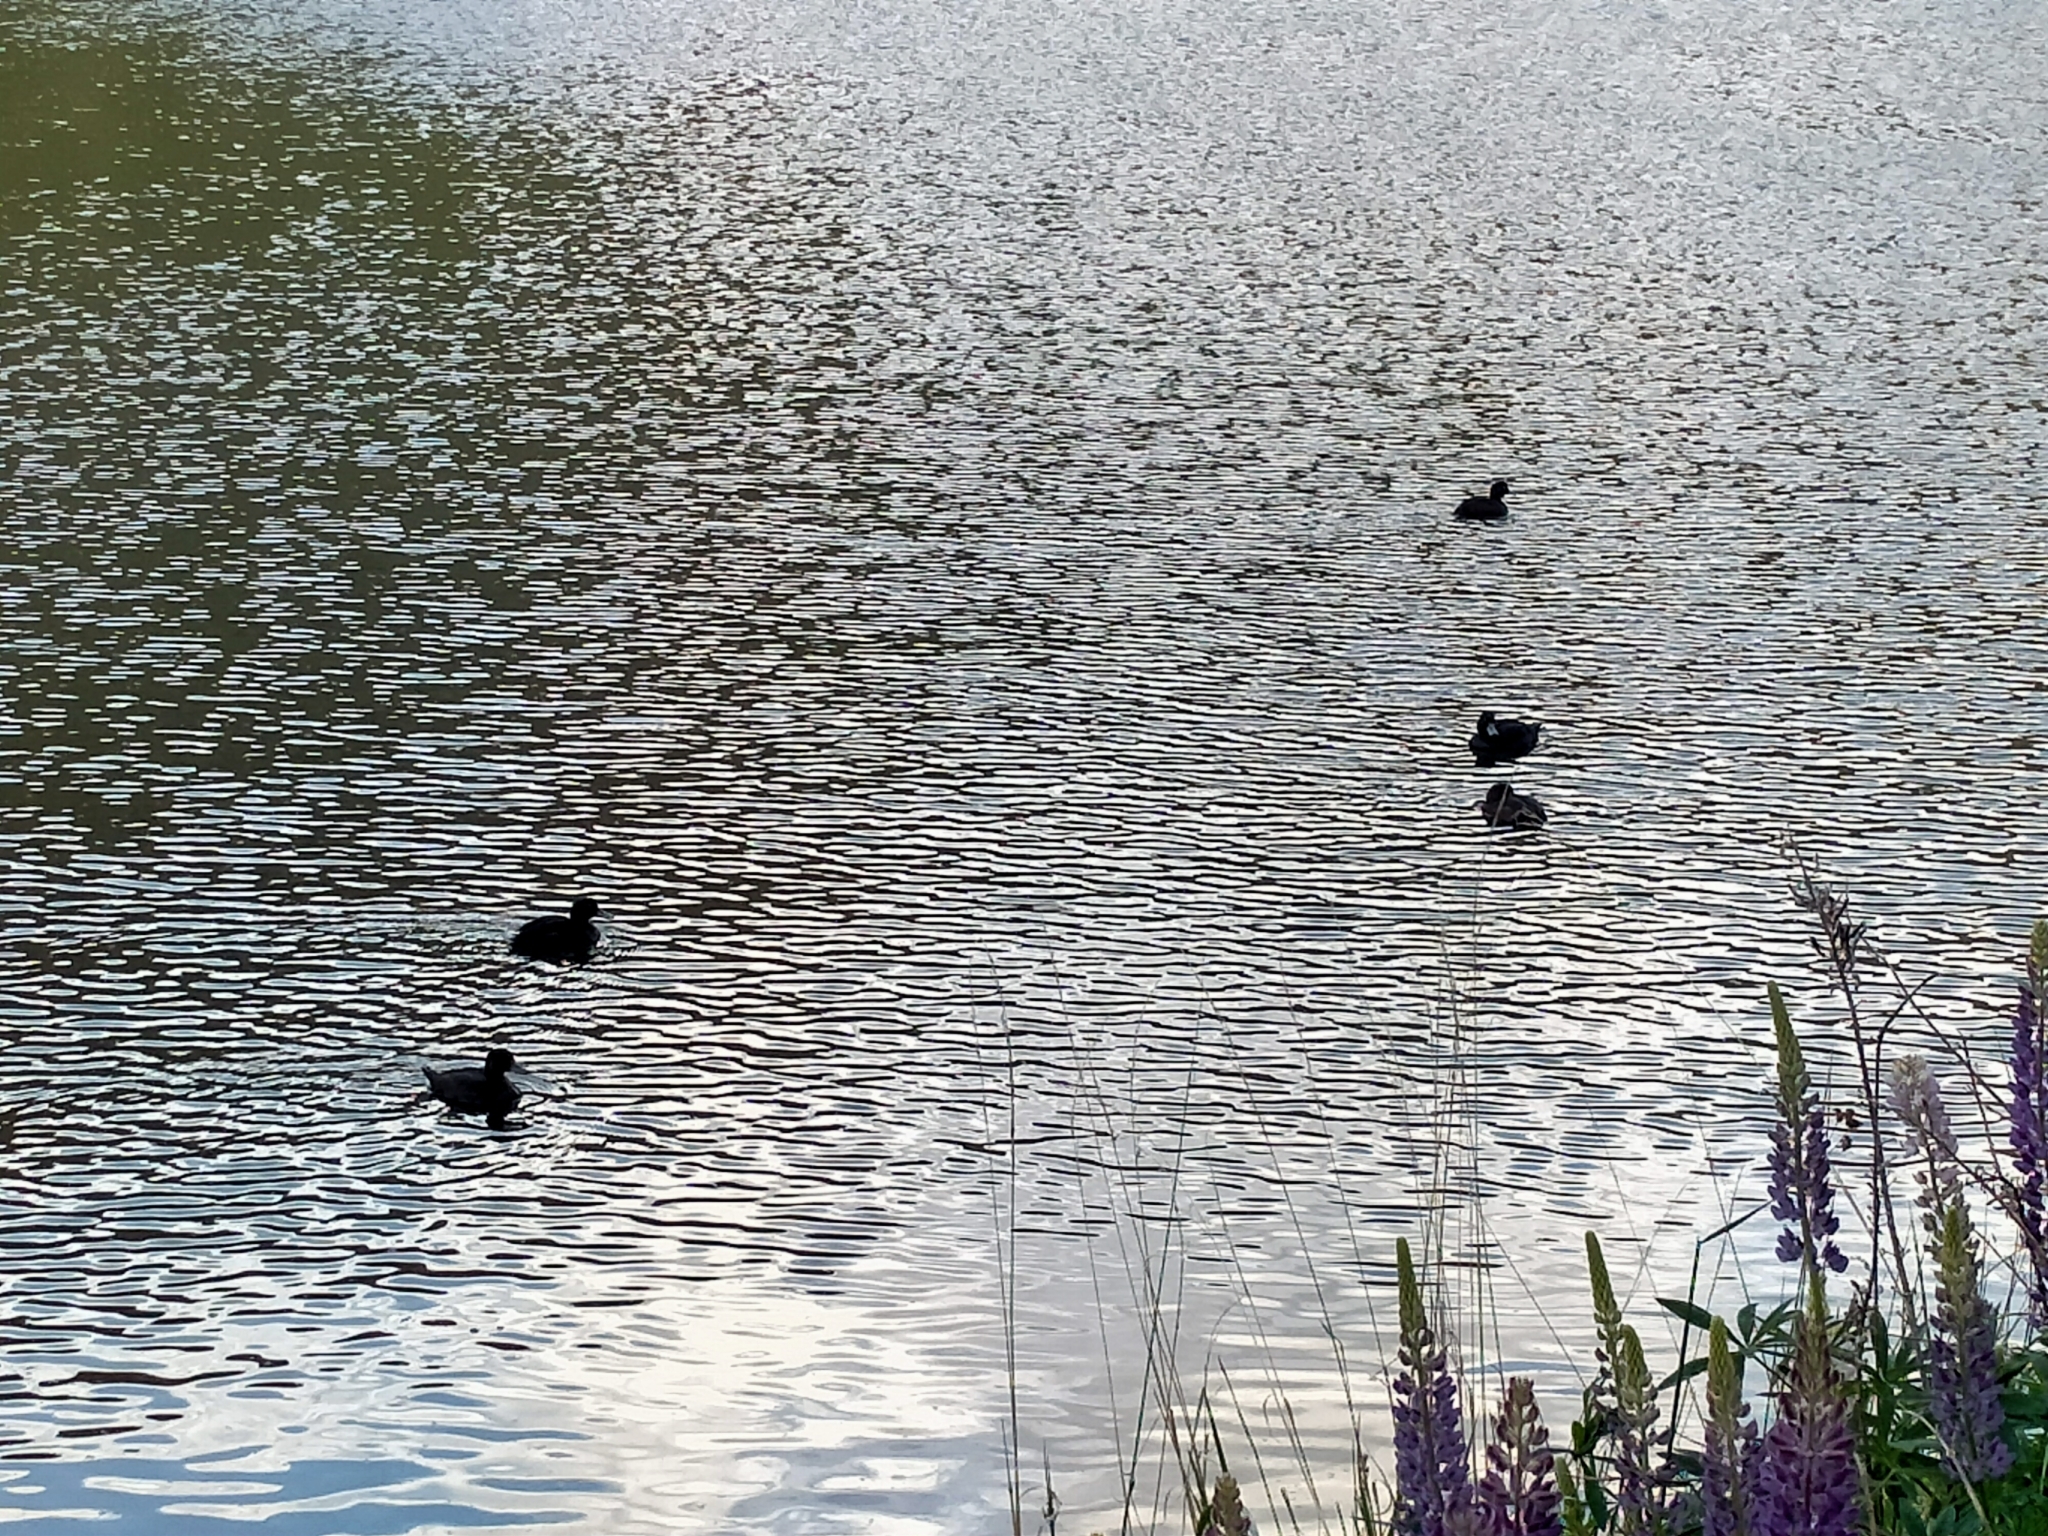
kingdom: Animalia
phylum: Chordata
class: Aves
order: Anseriformes
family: Anatidae
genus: Aythya
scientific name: Aythya novaeseelandiae
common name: New zealand scaup
